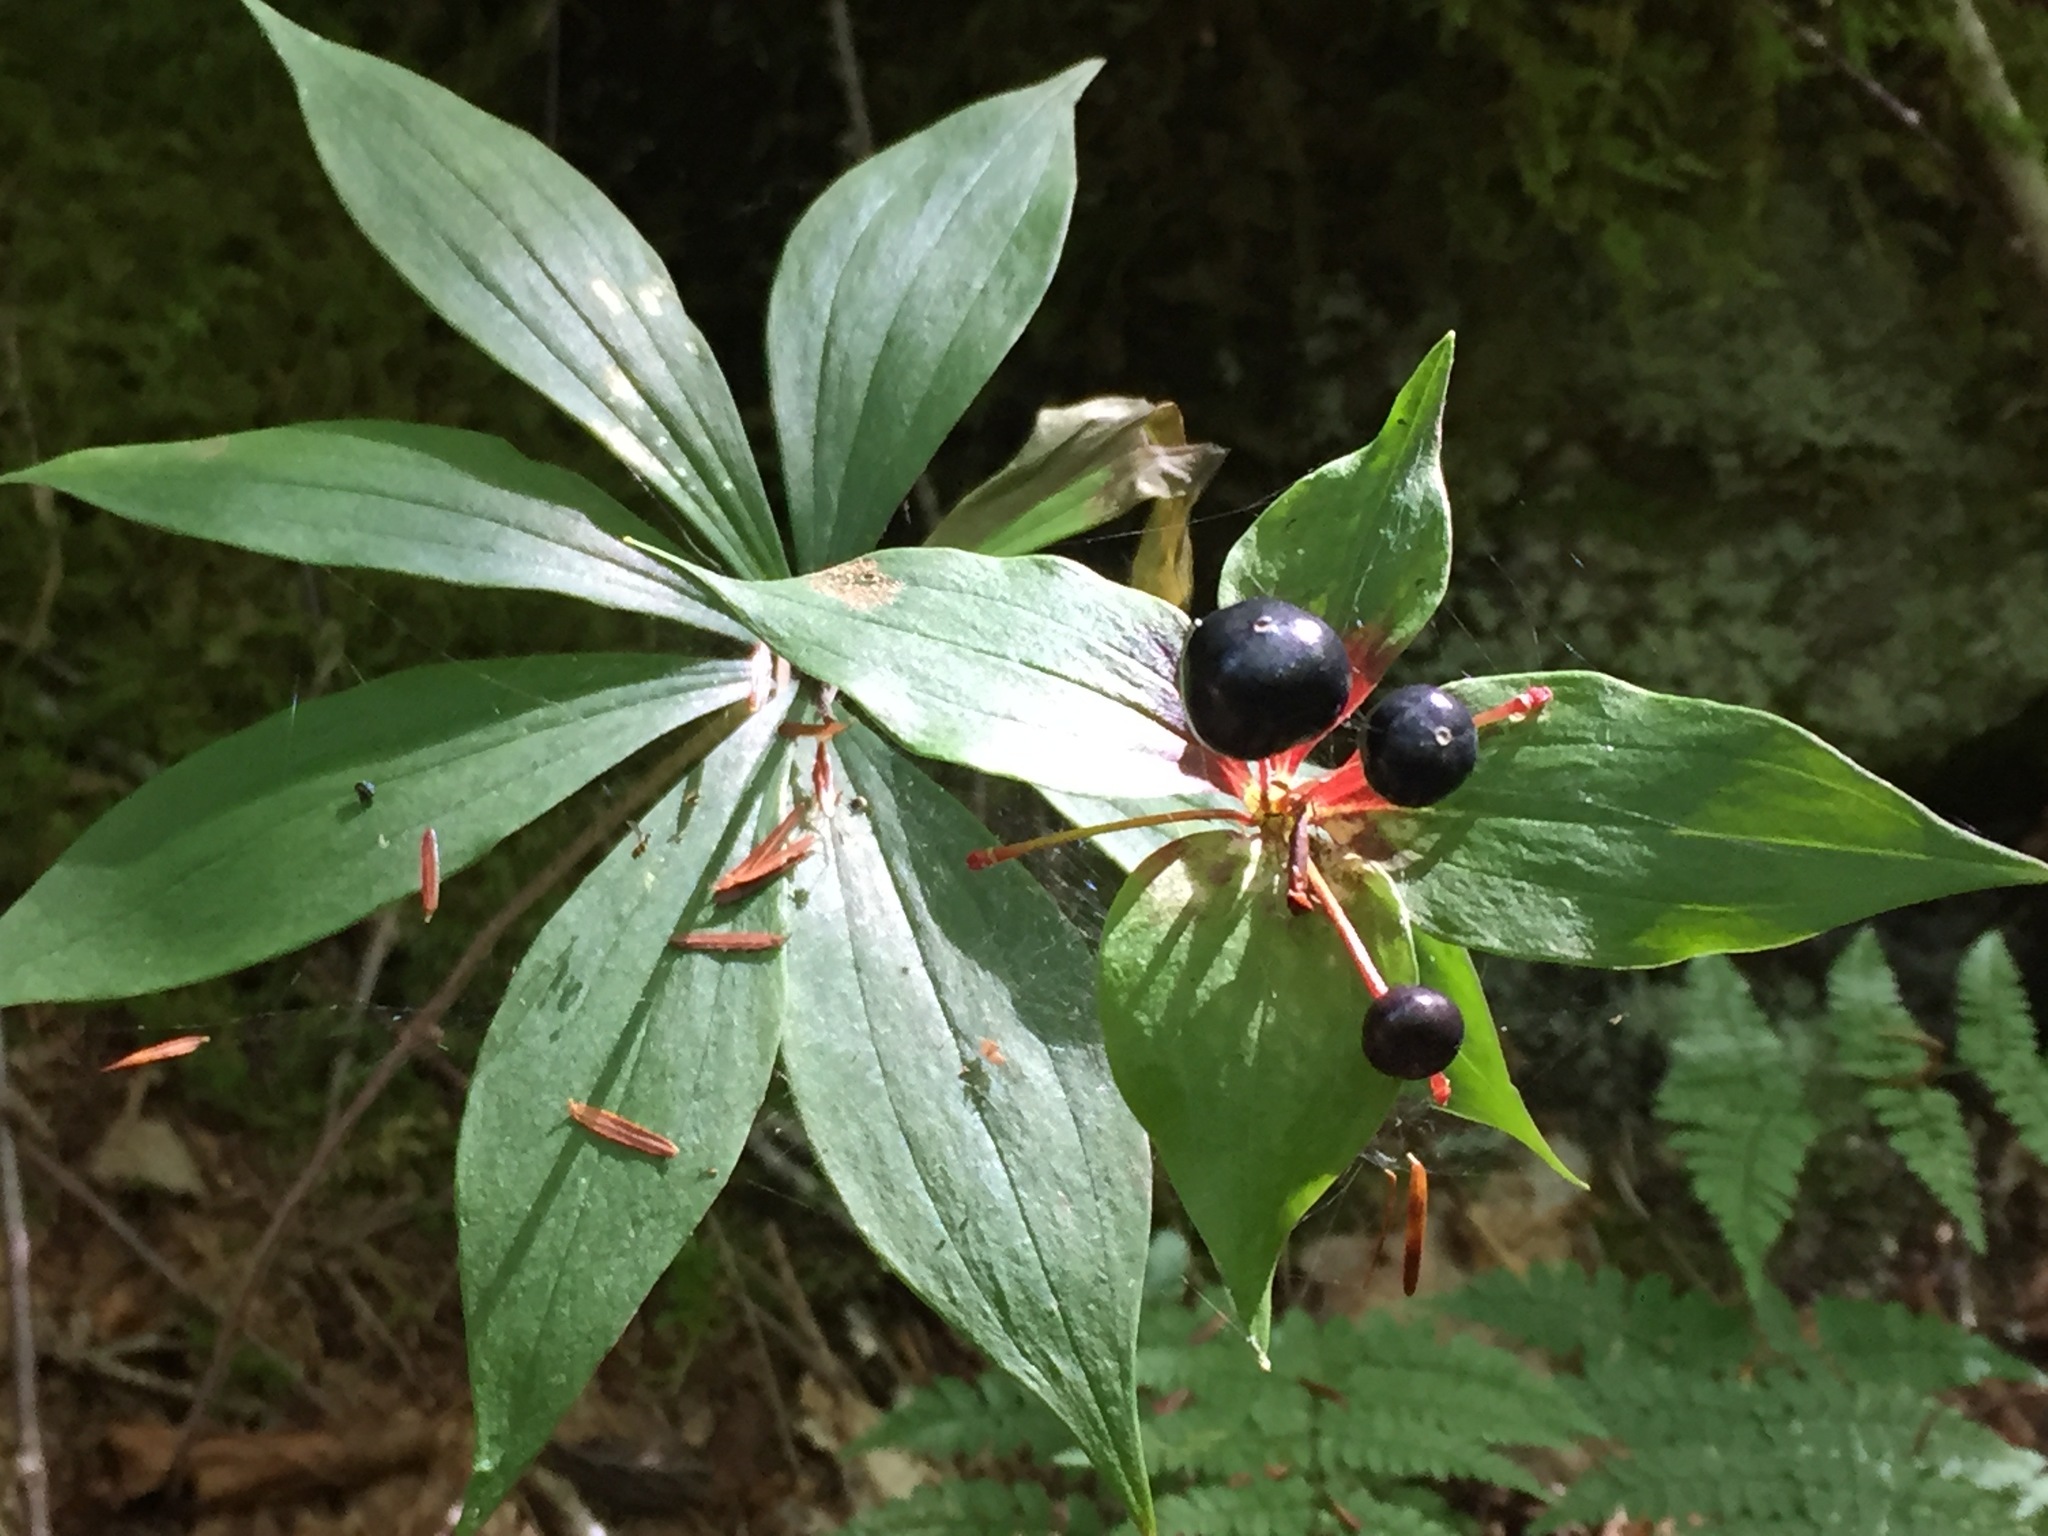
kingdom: Plantae
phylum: Tracheophyta
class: Liliopsida
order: Liliales
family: Liliaceae
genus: Medeola
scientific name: Medeola virginiana
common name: Indian cucumber-root
